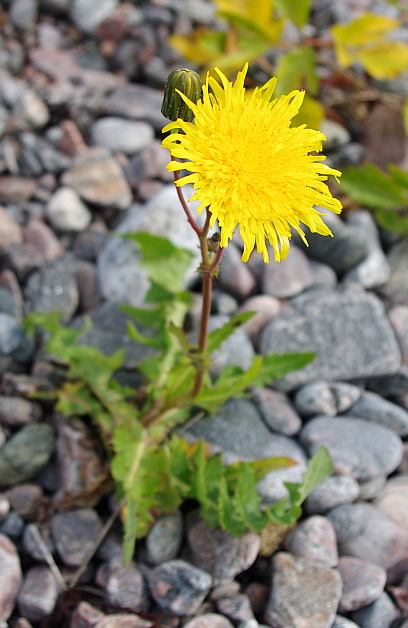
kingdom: Plantae
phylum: Tracheophyta
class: Magnoliopsida
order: Asterales
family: Asteraceae
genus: Sonchus
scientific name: Sonchus arvensis
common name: Perennial sow-thistle
